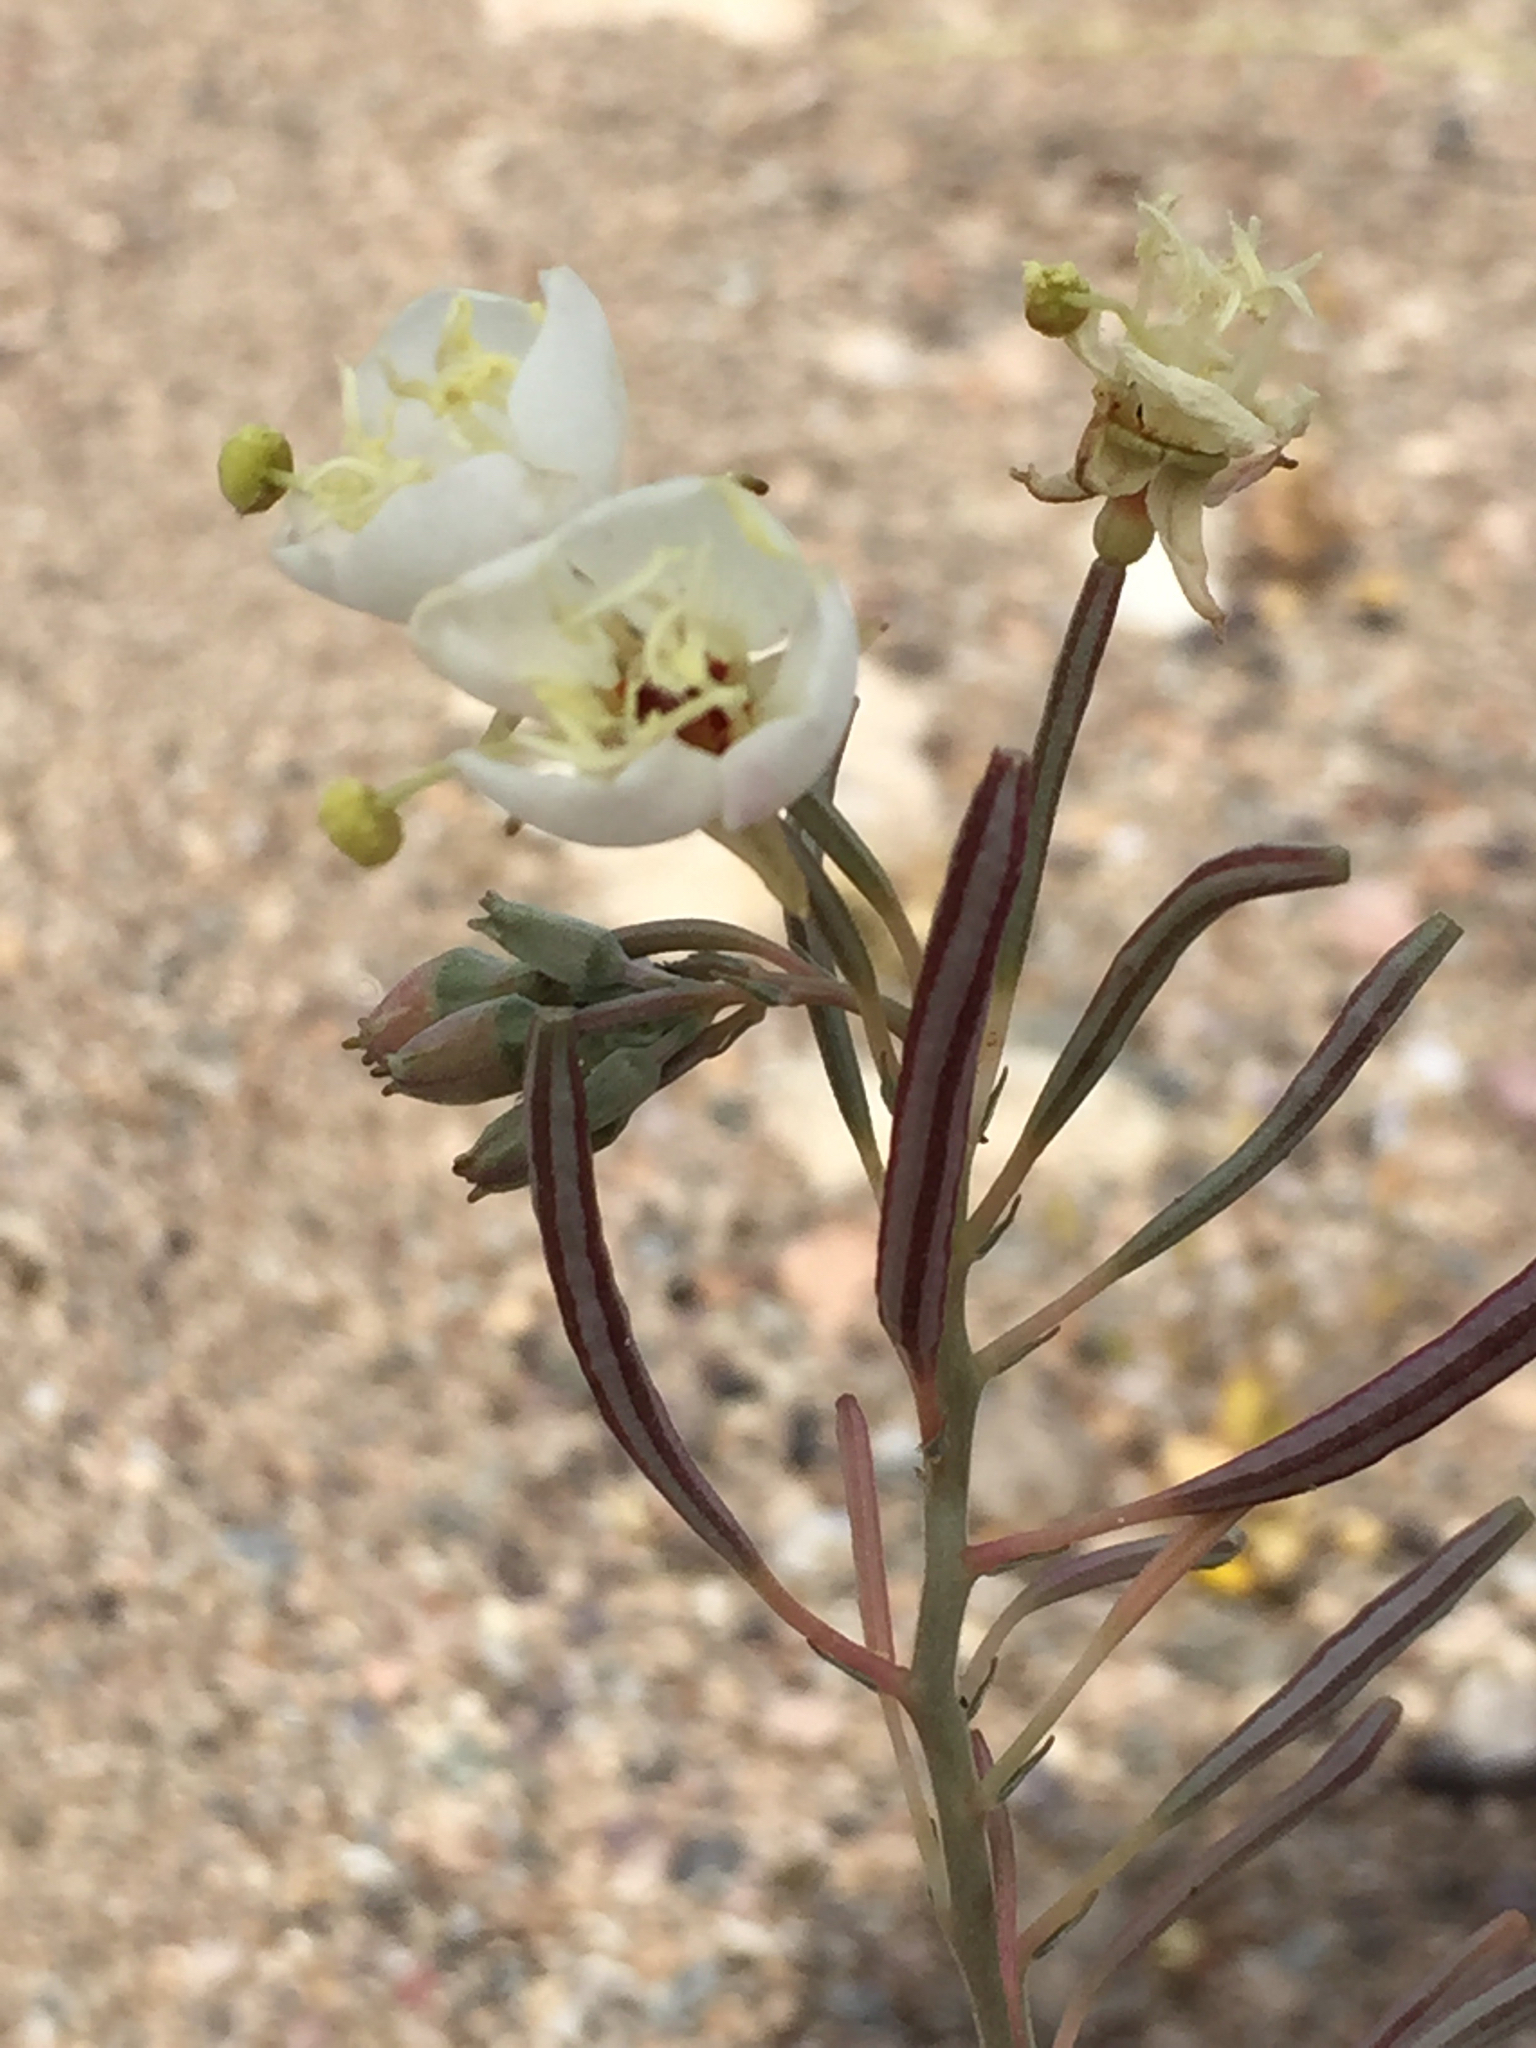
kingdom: Plantae
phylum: Tracheophyta
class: Magnoliopsida
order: Myrtales
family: Onagraceae
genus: Chylismia
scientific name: Chylismia claviformis
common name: Browneyes
